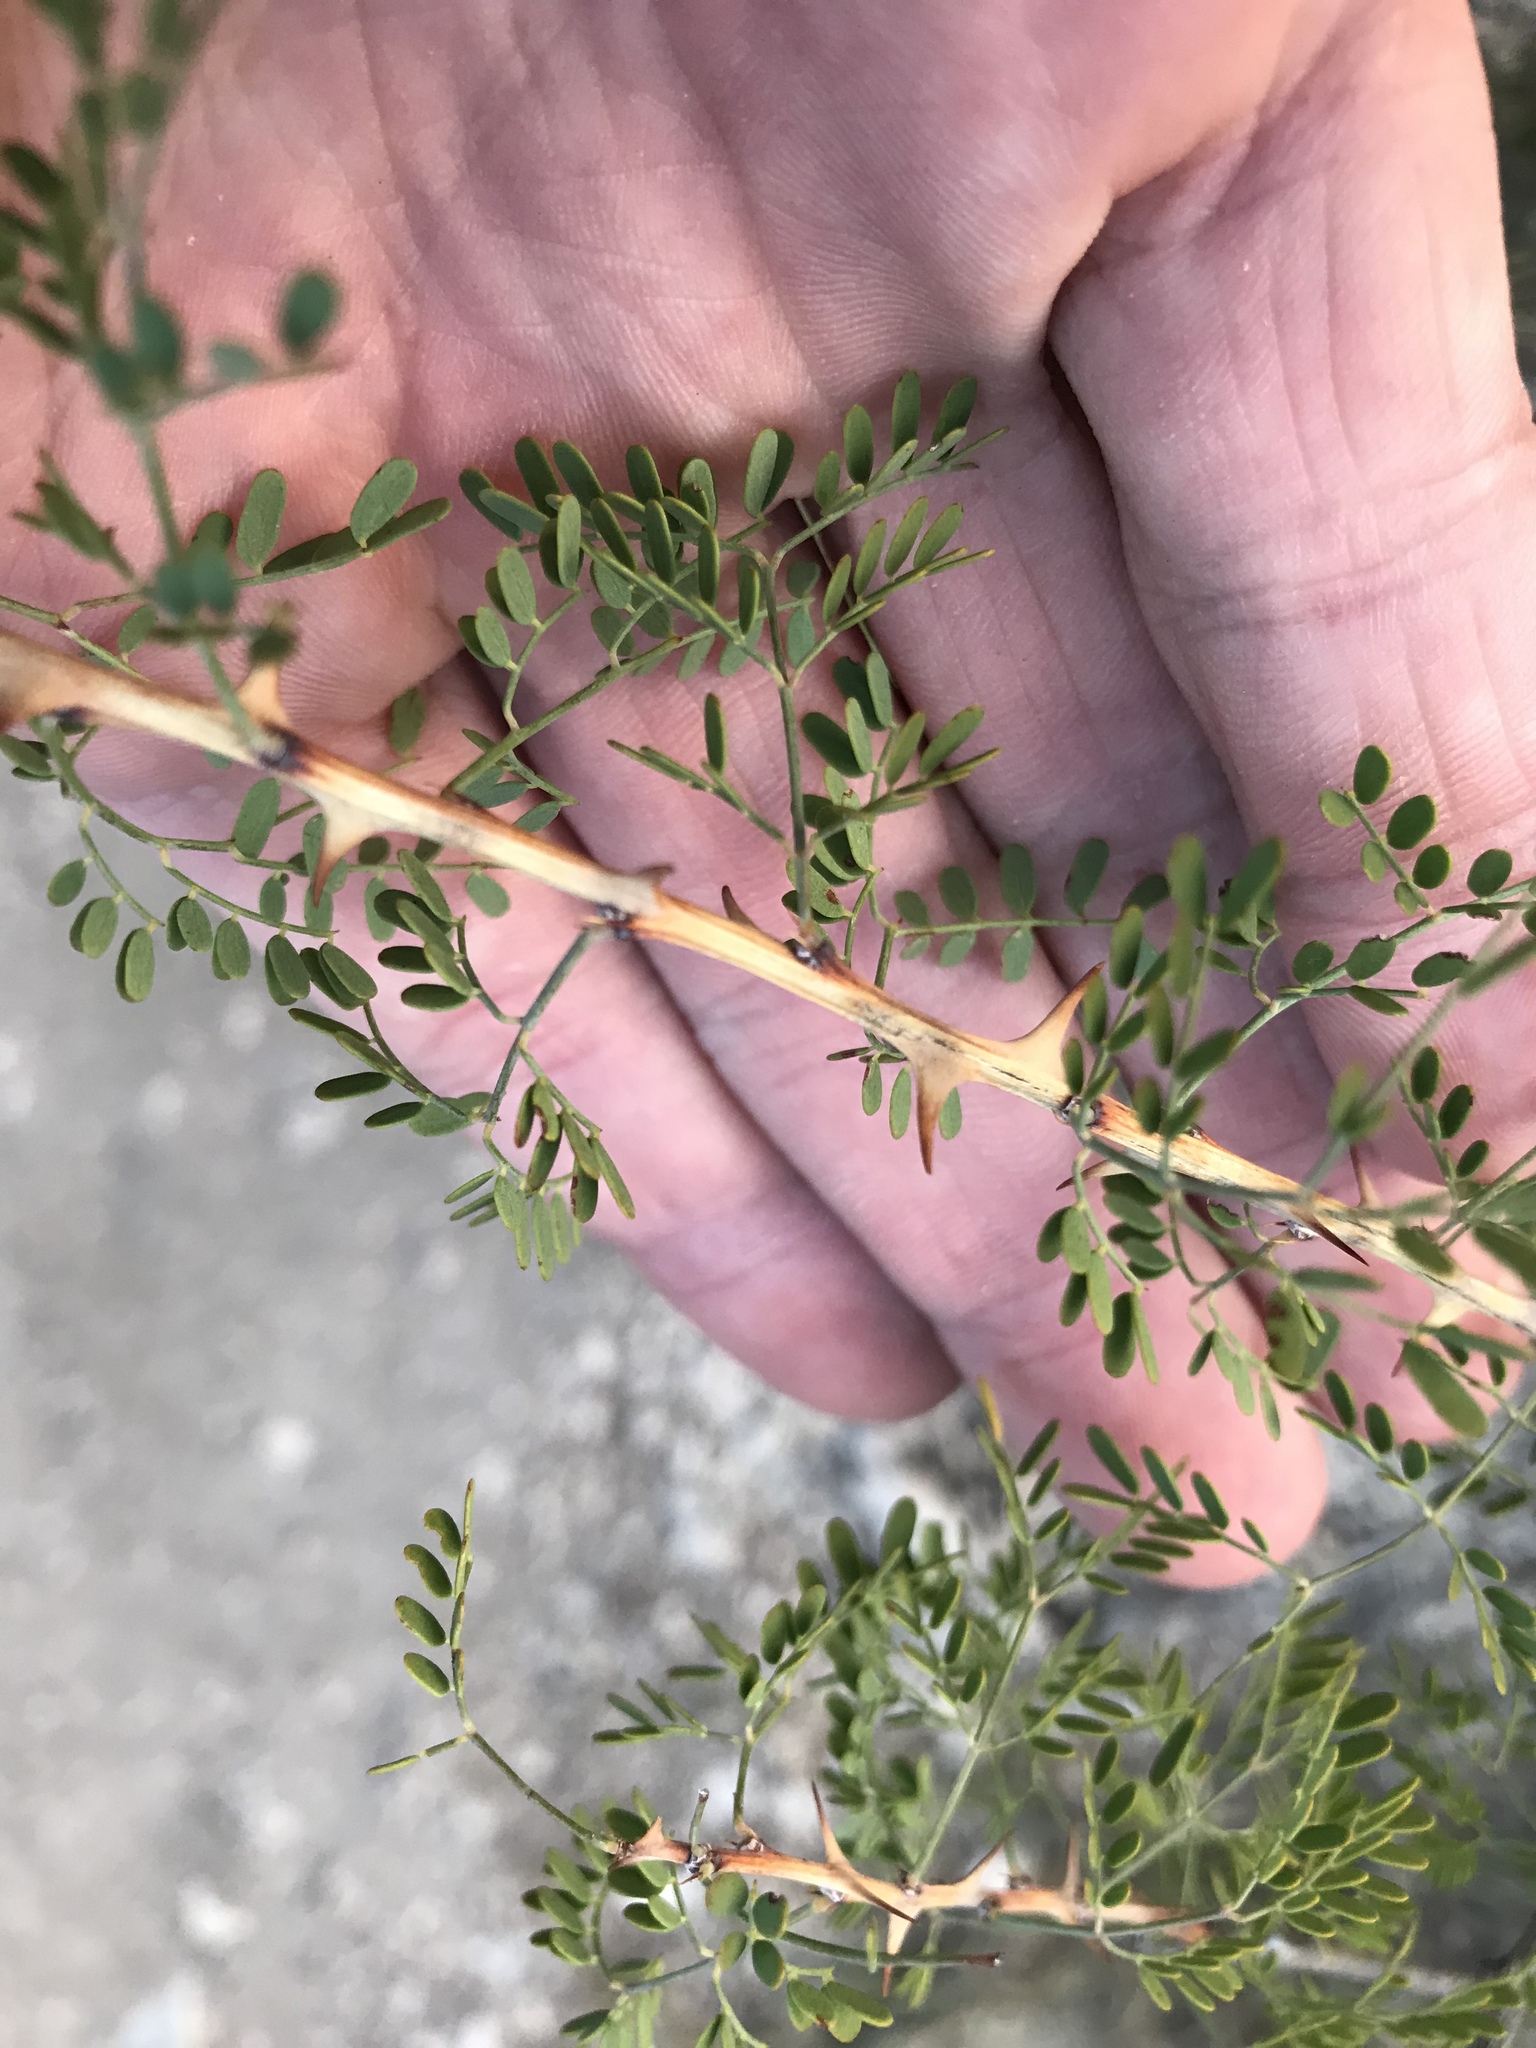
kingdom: Plantae
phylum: Tracheophyta
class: Magnoliopsida
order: Fabales
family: Fabaceae
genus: Mimosa
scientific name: Mimosa borealis
